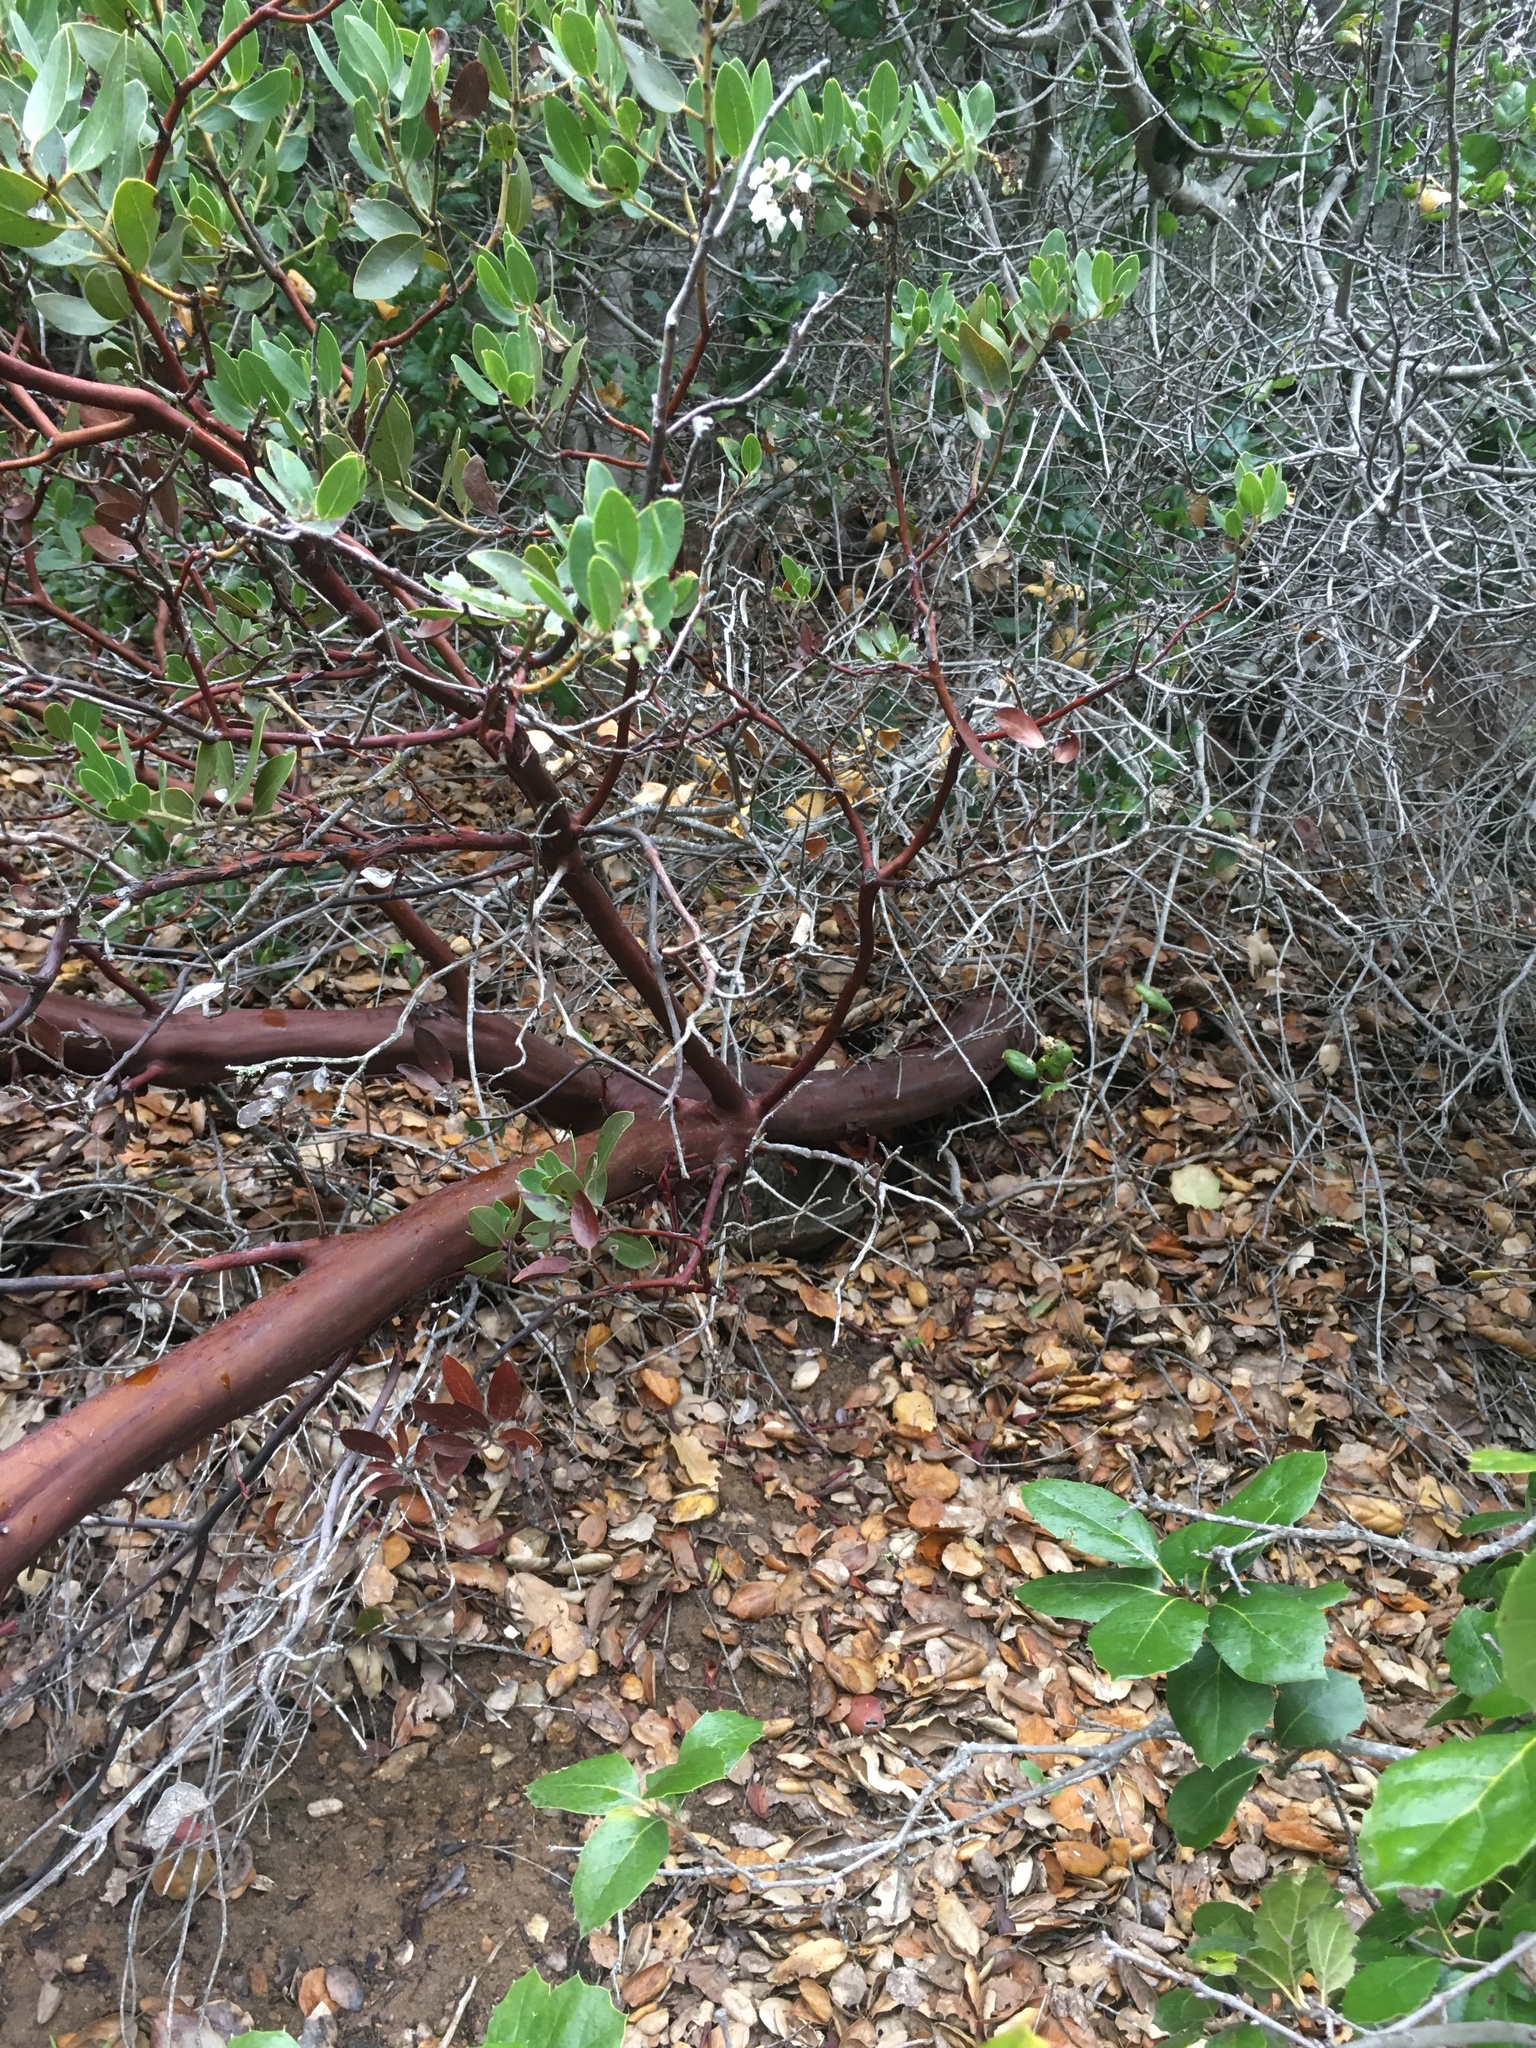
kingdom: Plantae
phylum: Tracheophyta
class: Magnoliopsida
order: Ericales
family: Ericaceae
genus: Arctostaphylos
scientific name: Arctostaphylos insularis
